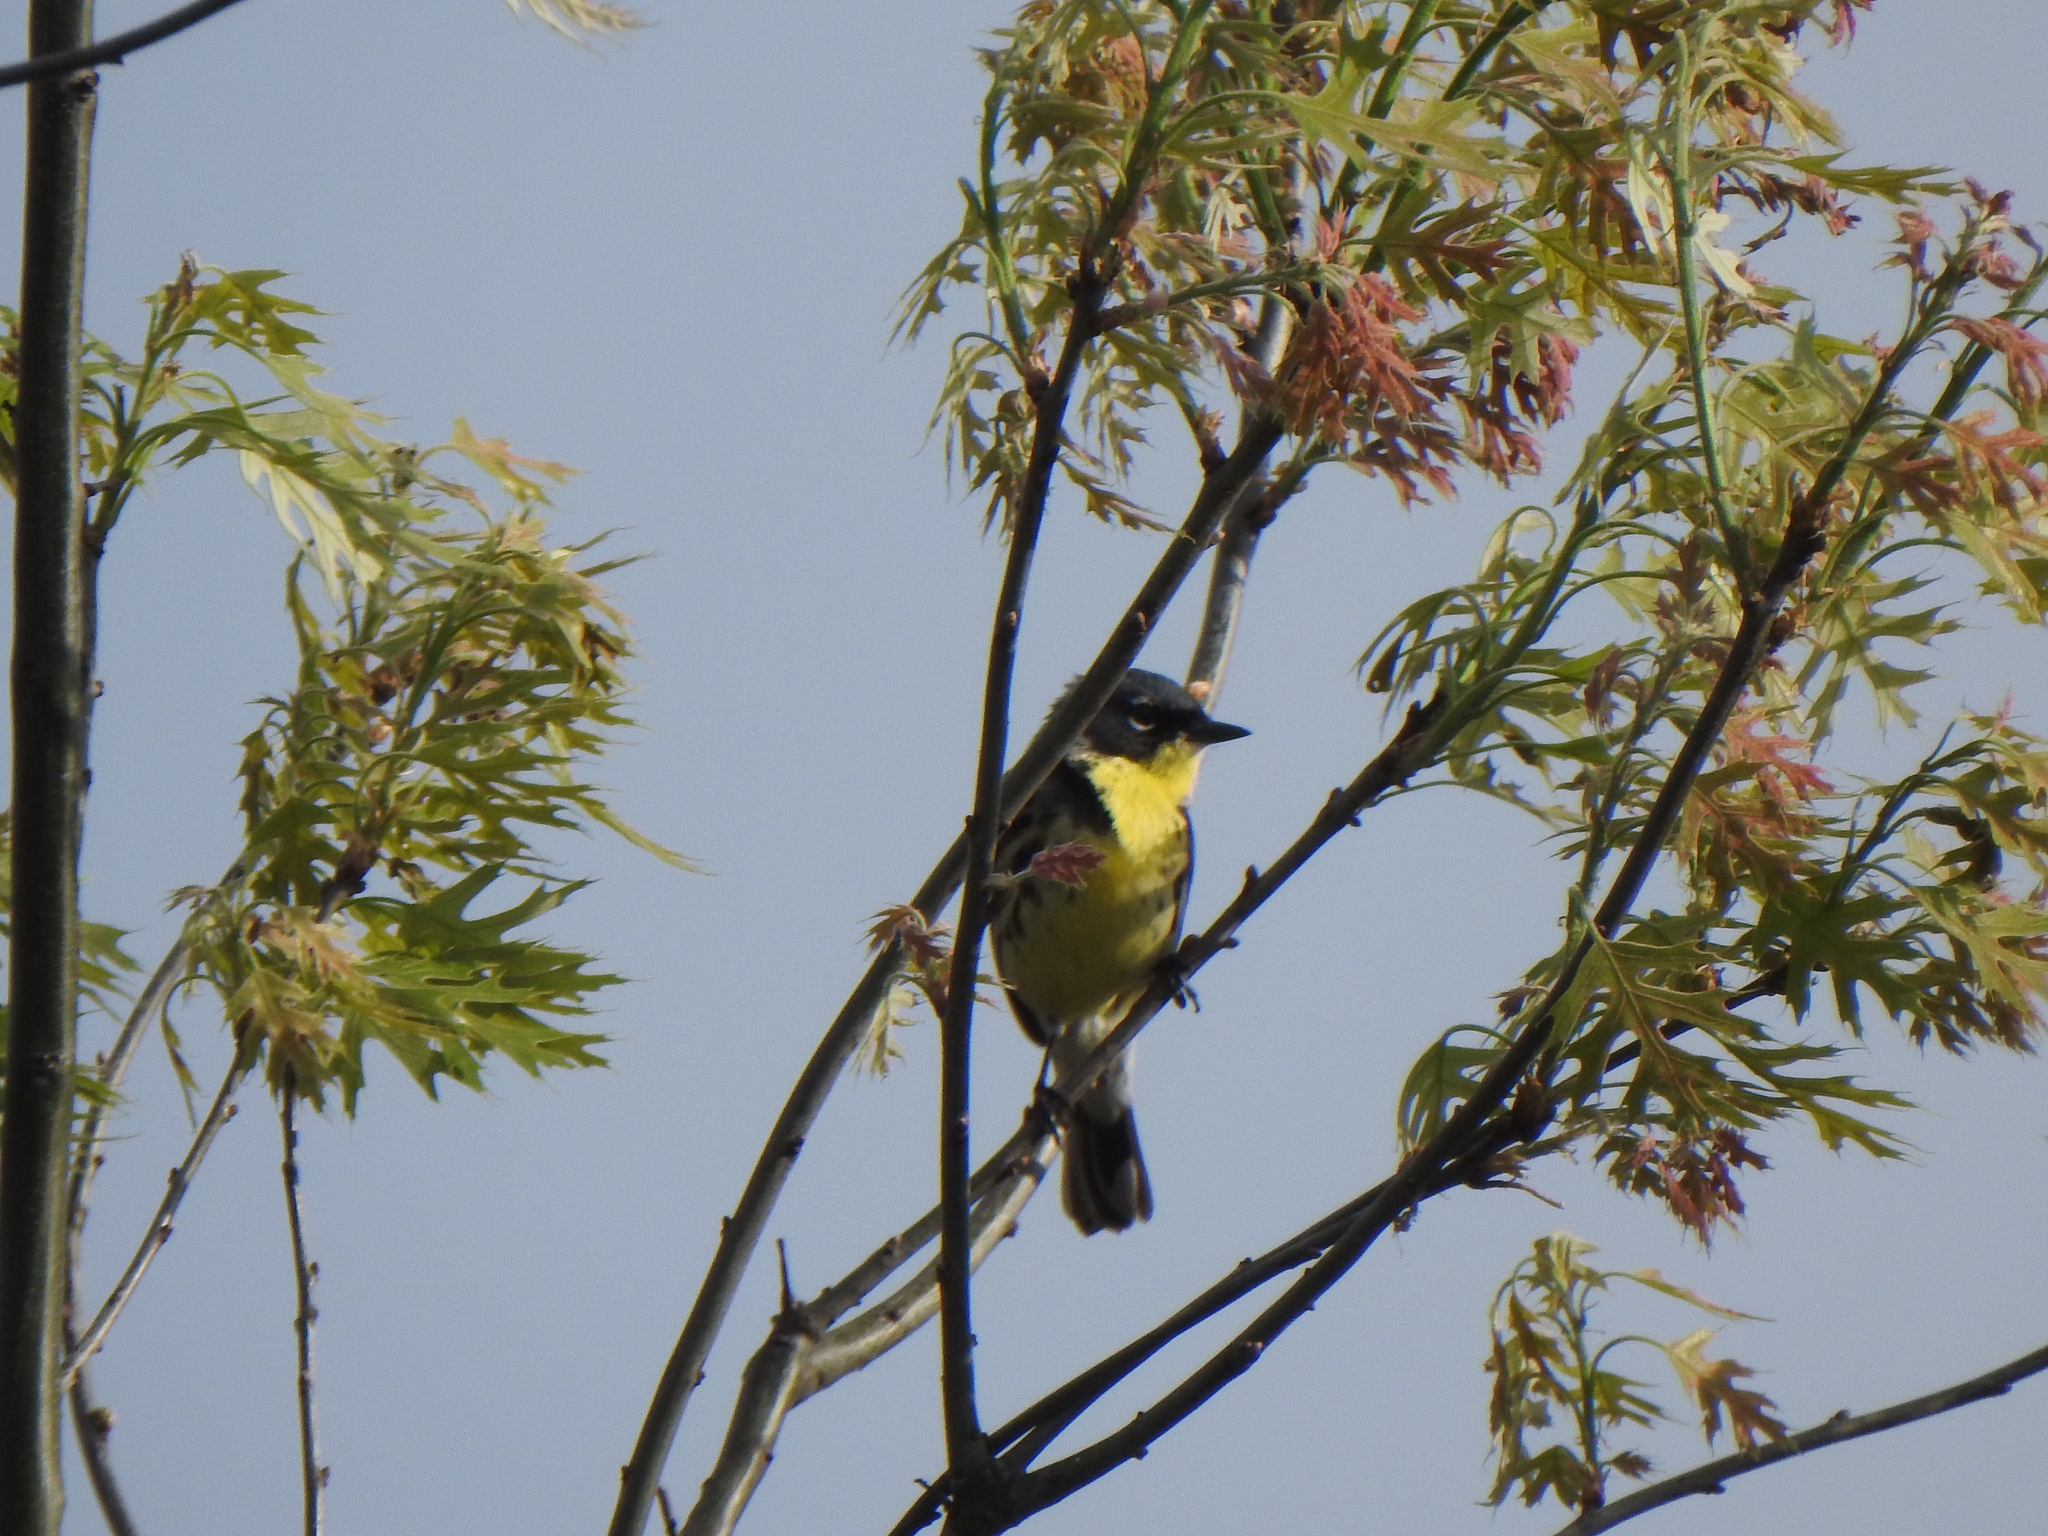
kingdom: Animalia
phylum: Chordata
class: Aves
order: Passeriformes
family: Parulidae
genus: Setophaga
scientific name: Setophaga kirtlandii
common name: Kirtland's warbler
